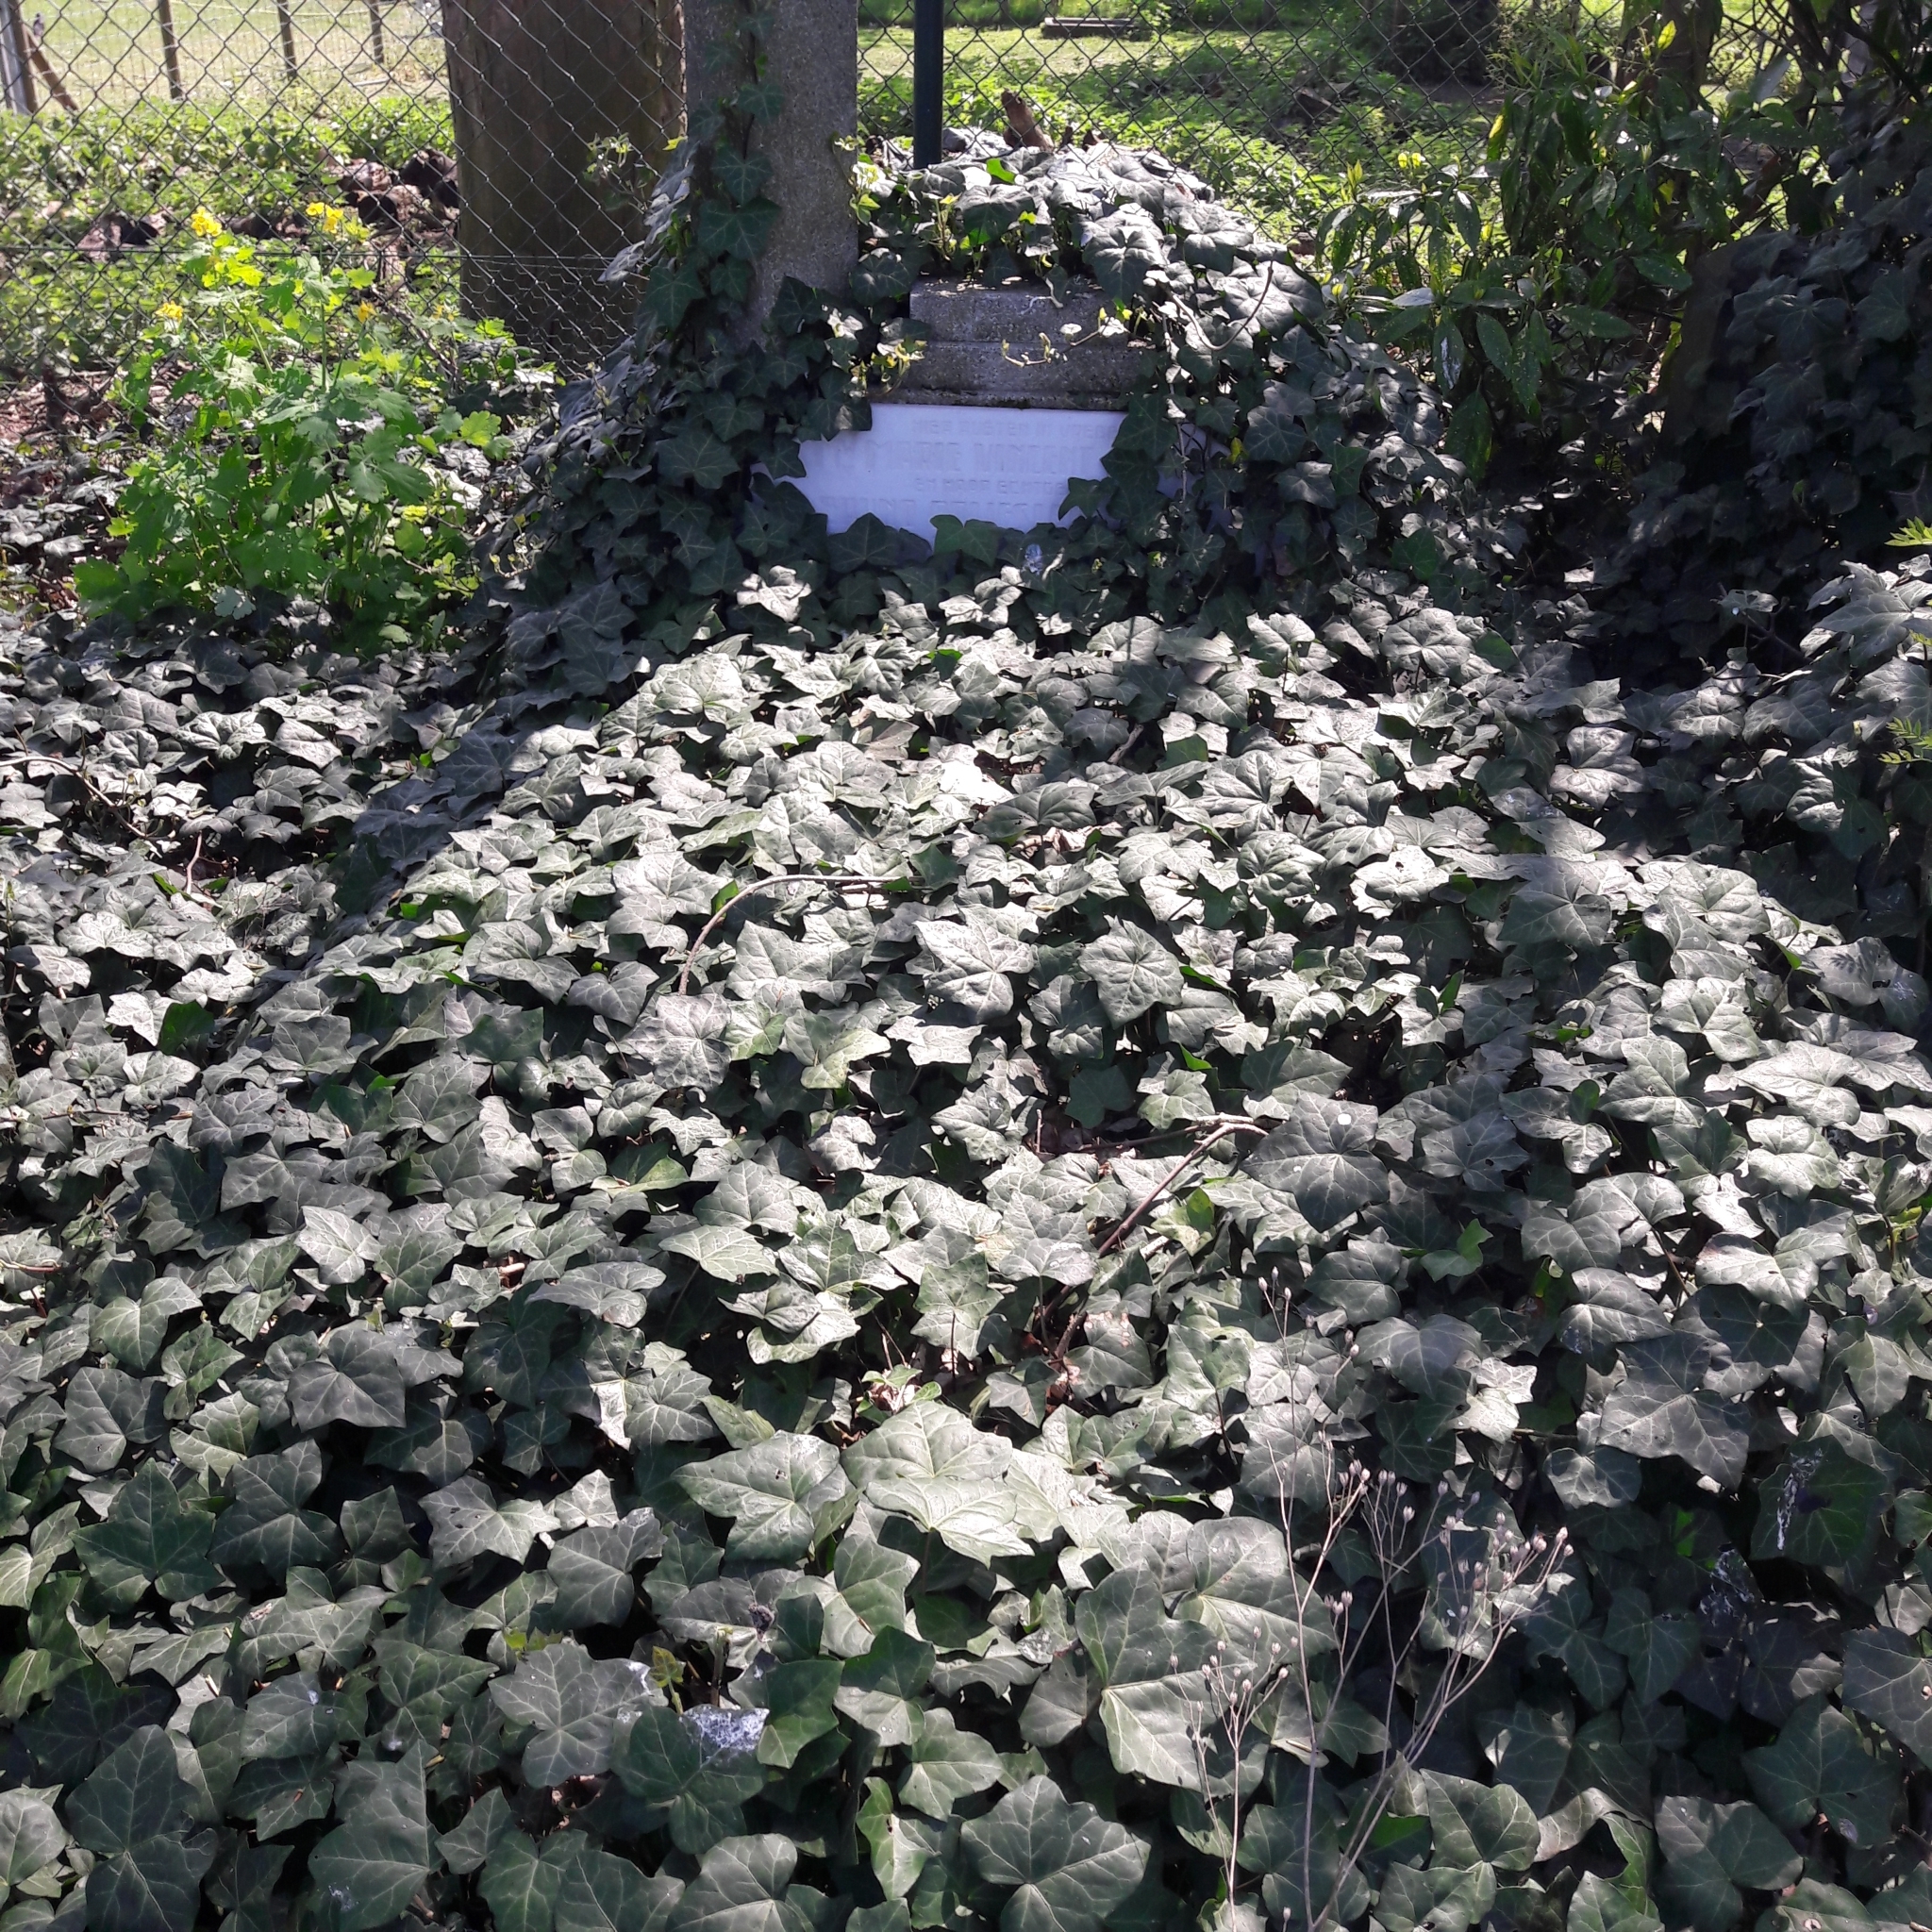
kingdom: Plantae
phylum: Tracheophyta
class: Magnoliopsida
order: Apiales
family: Araliaceae
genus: Hedera
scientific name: Hedera helix
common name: Ivy
